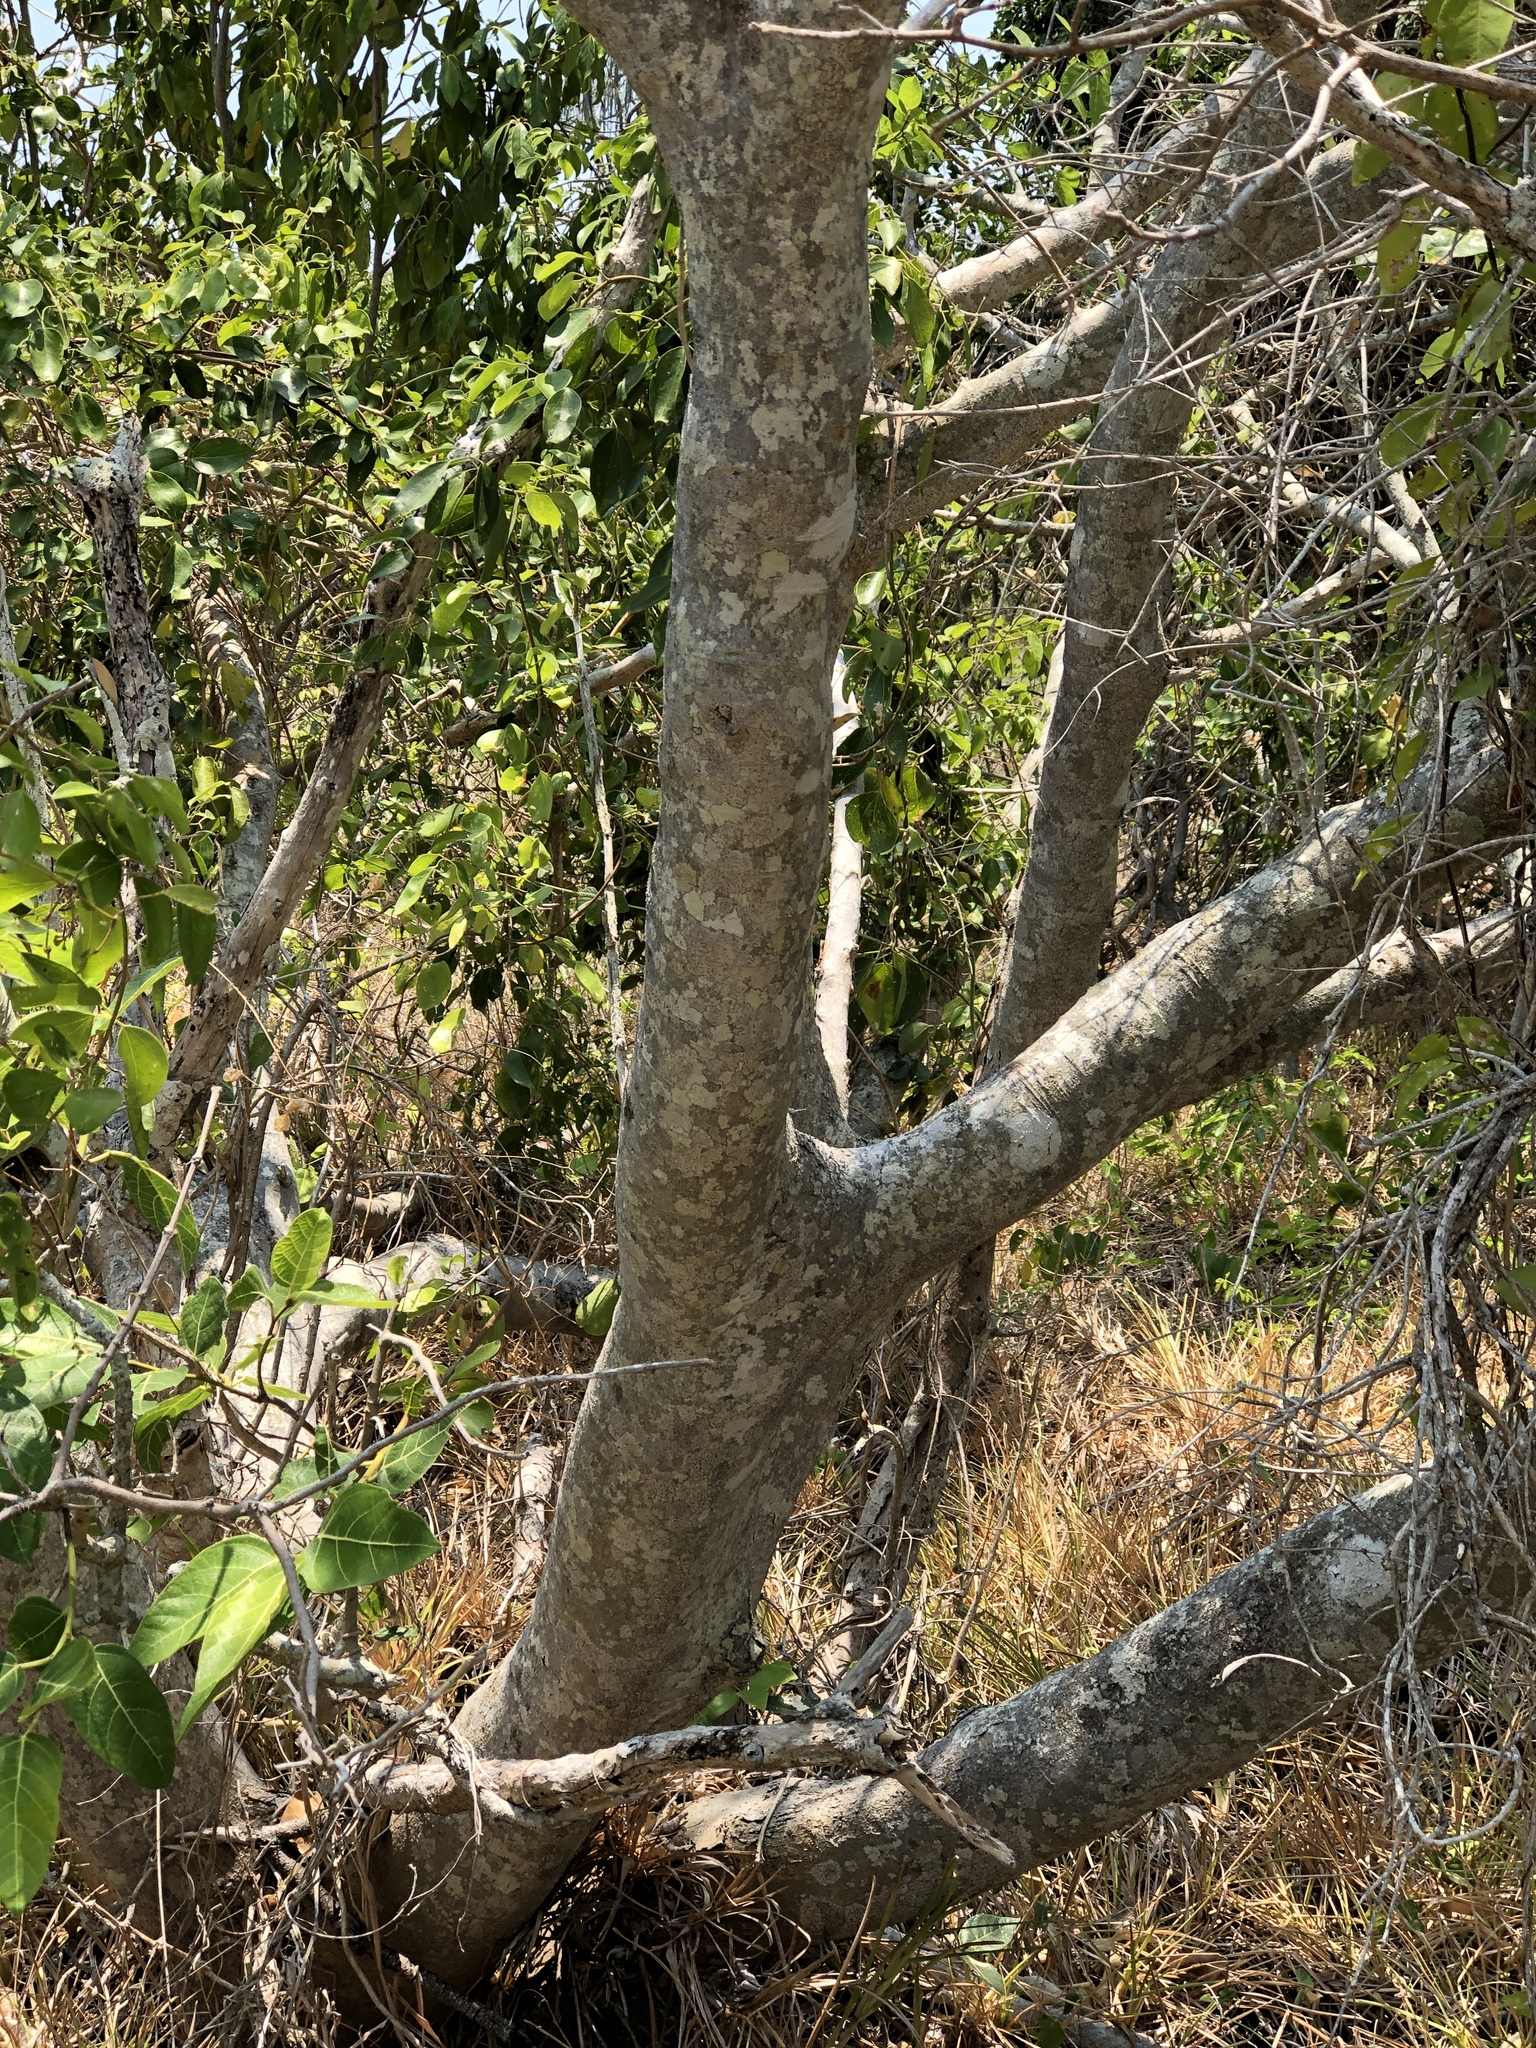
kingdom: Plantae
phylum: Tracheophyta
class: Magnoliopsida
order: Rosales
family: Moraceae
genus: Ficus
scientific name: Ficus opposita
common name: Figwood
